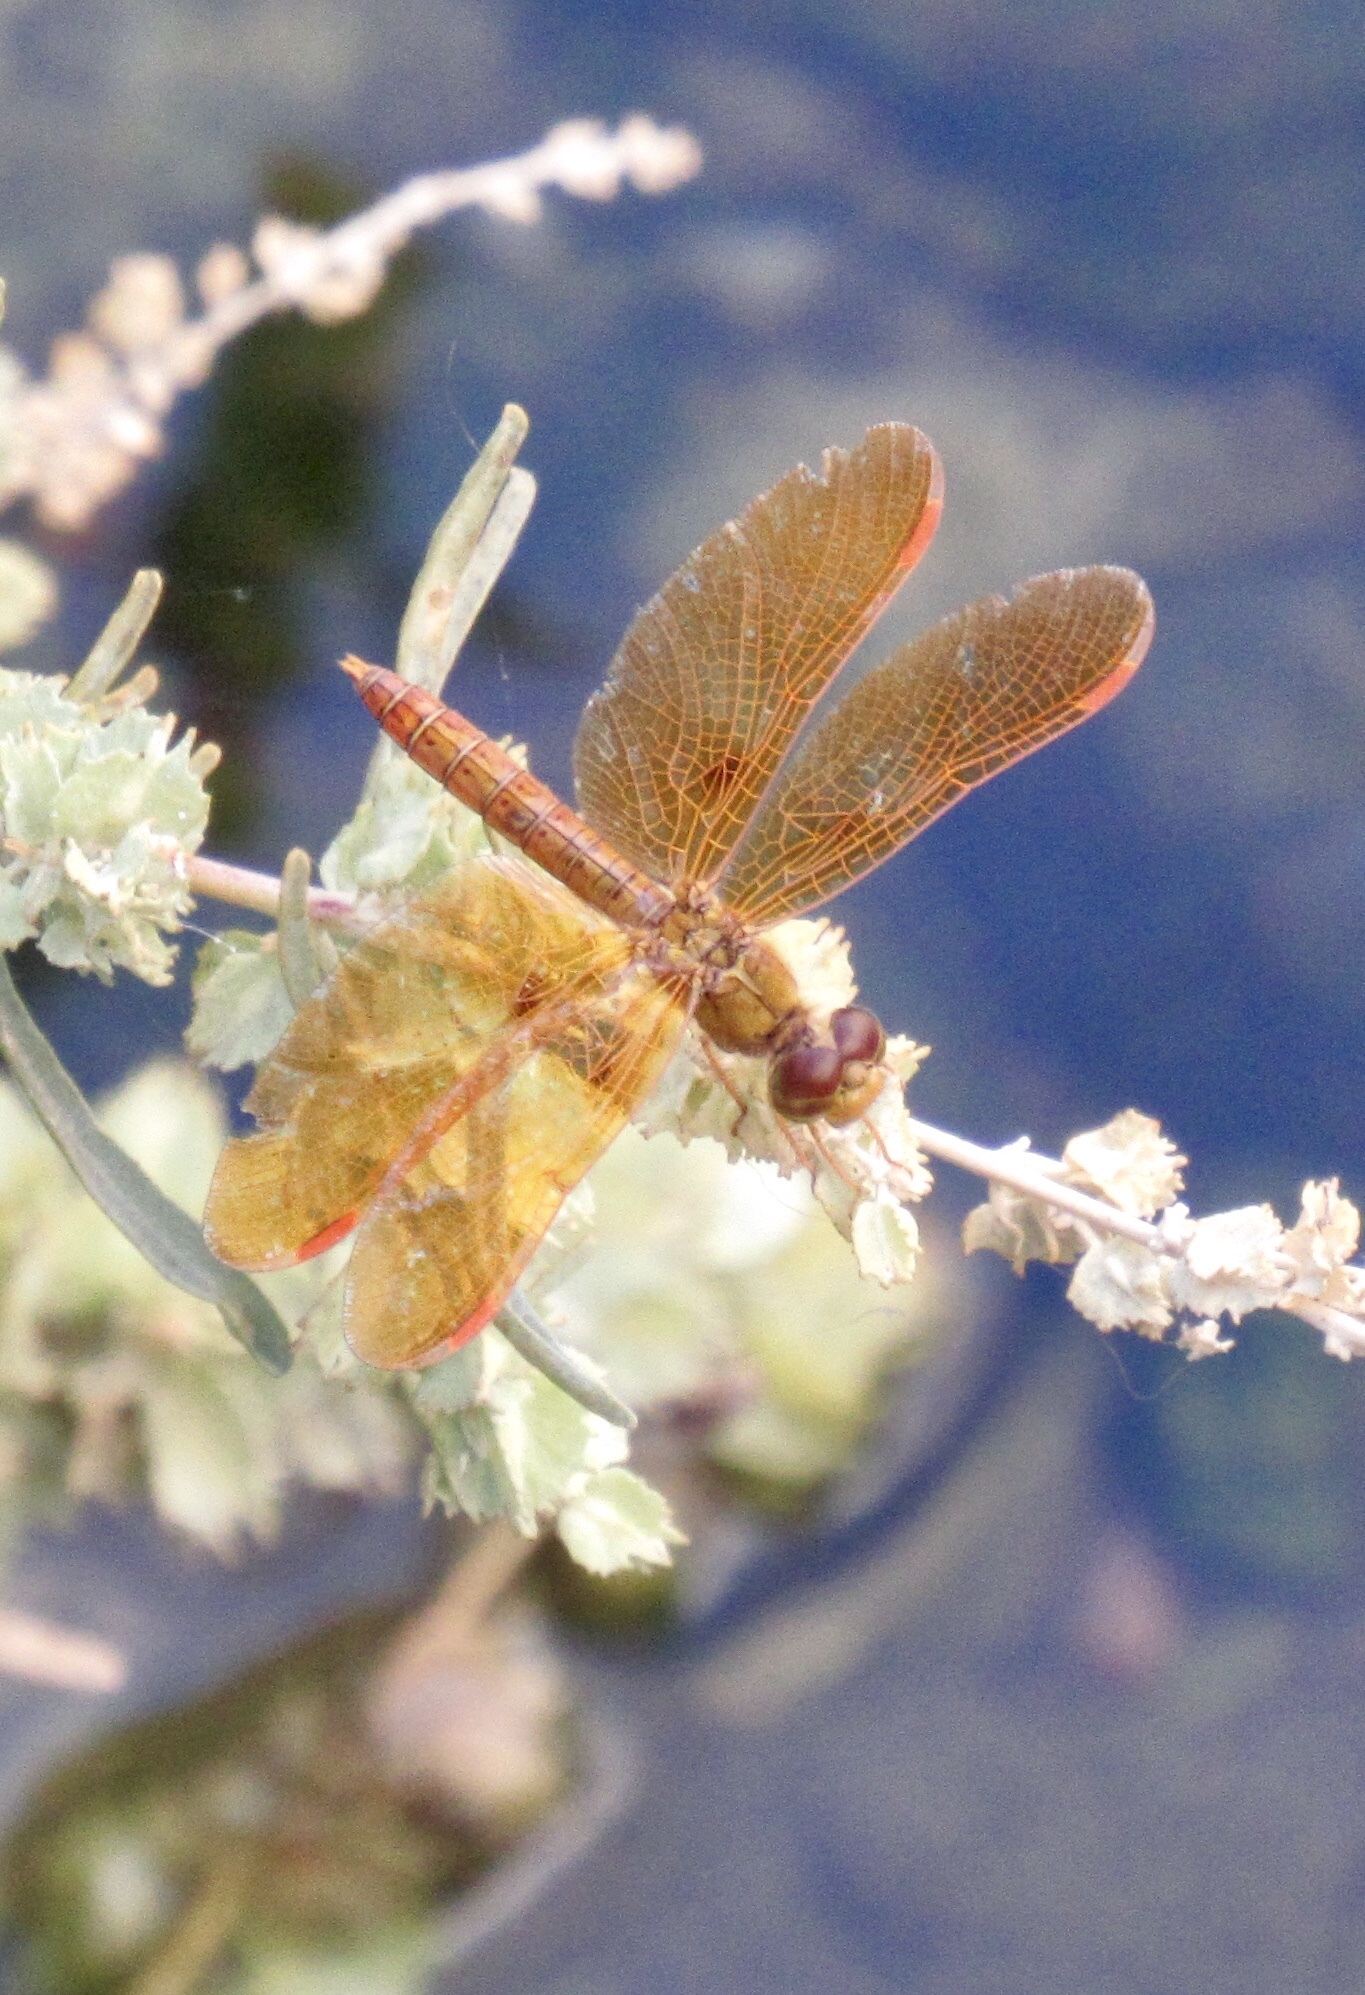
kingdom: Animalia
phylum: Arthropoda
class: Insecta
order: Odonata
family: Libellulidae
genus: Perithemis
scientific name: Perithemis intensa
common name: Mexican amberwing
